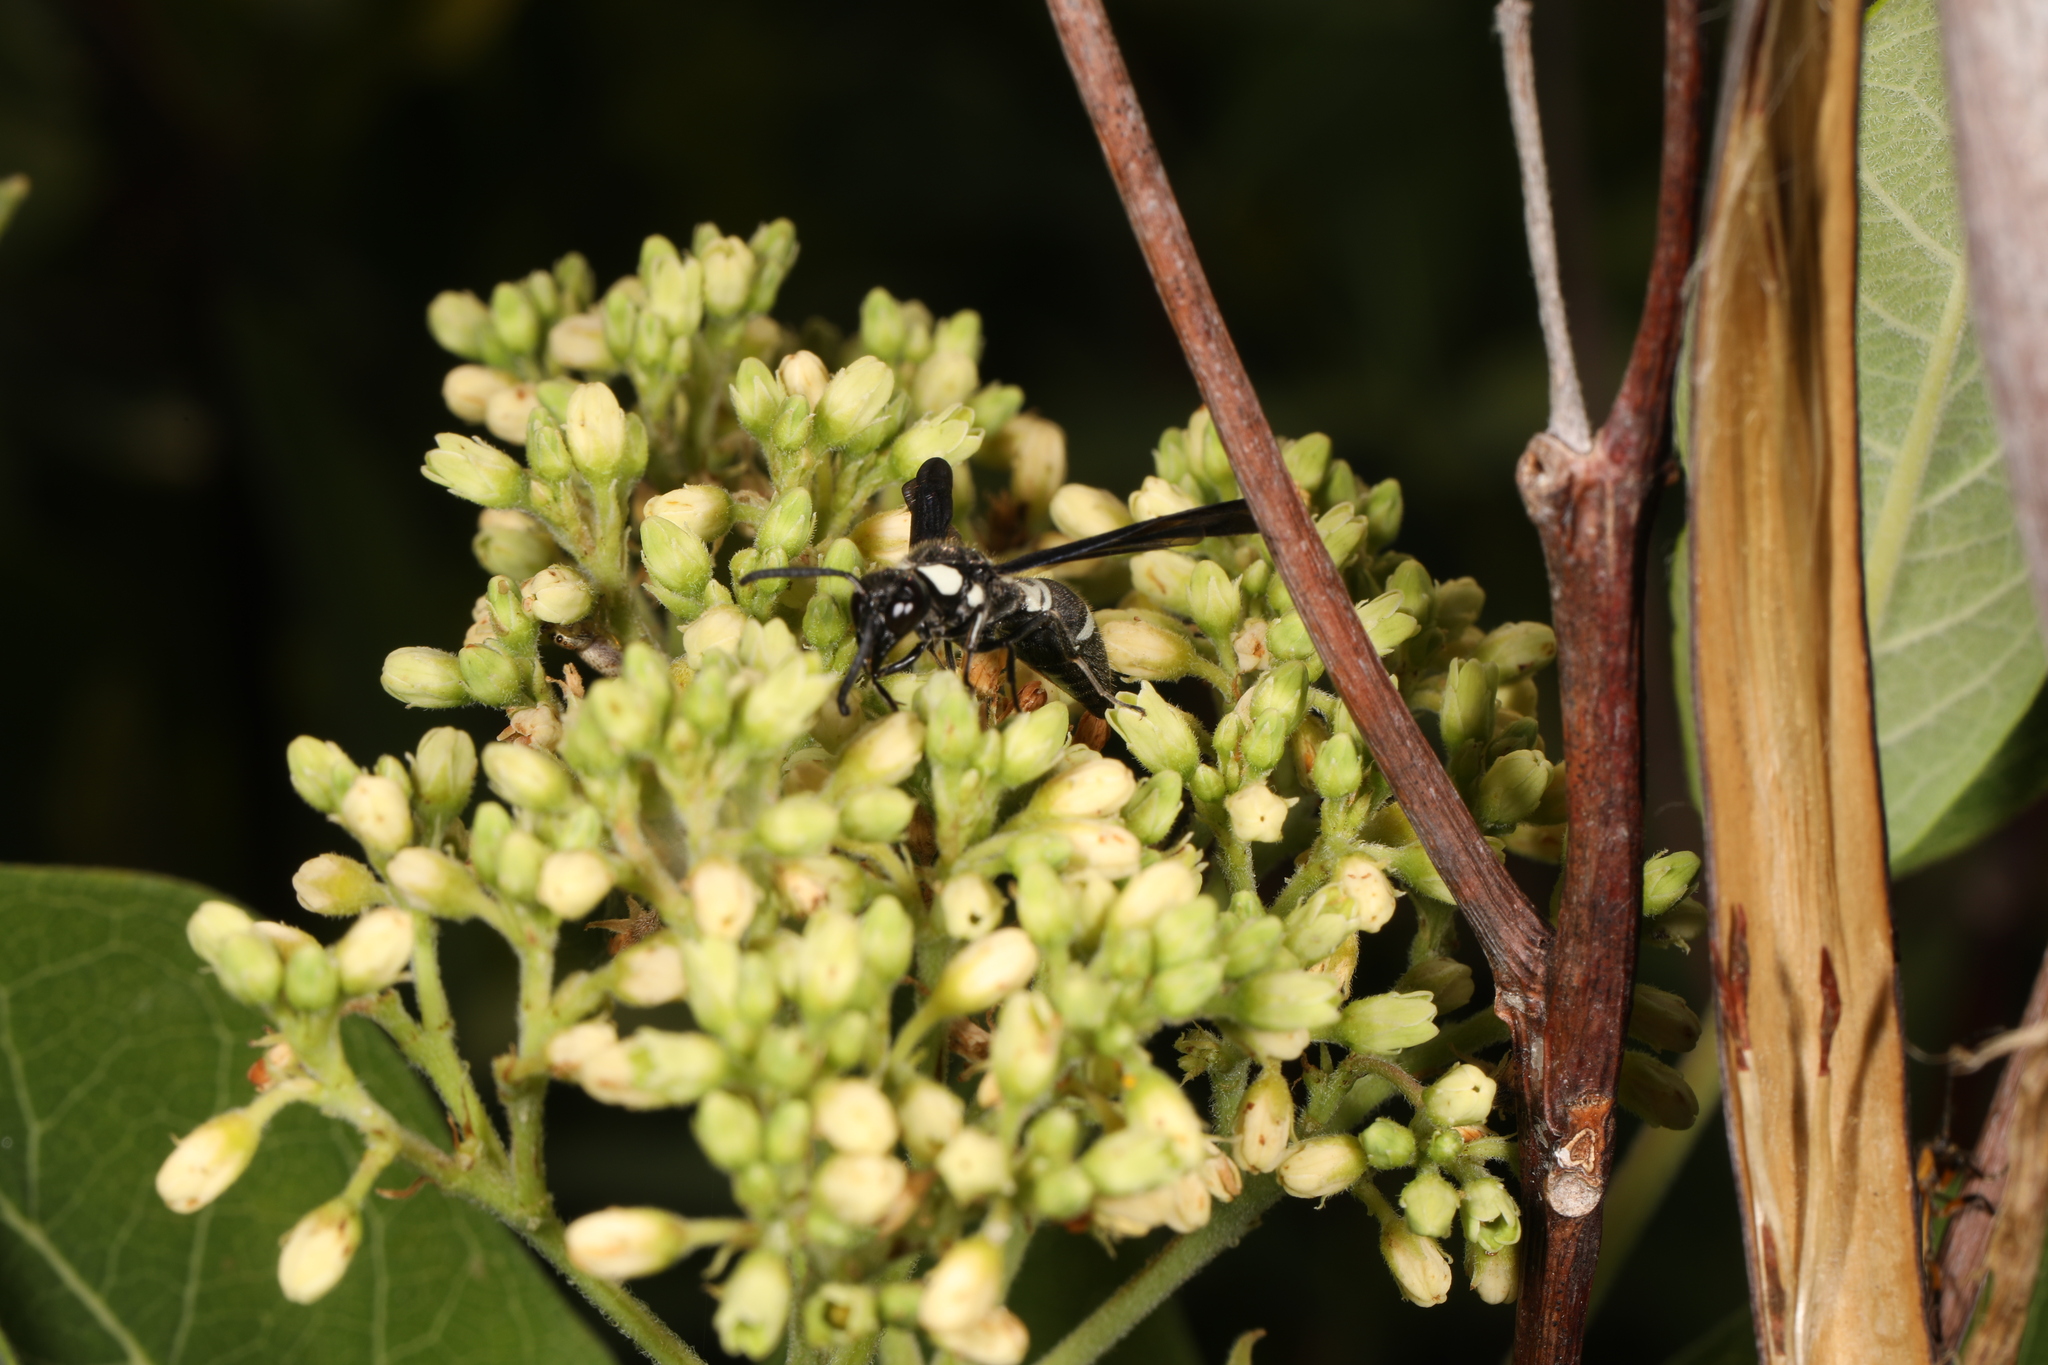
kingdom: Animalia
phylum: Arthropoda
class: Insecta
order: Hymenoptera
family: Eumenidae
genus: Pseudodynerus
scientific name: Pseudodynerus quadrisectus
